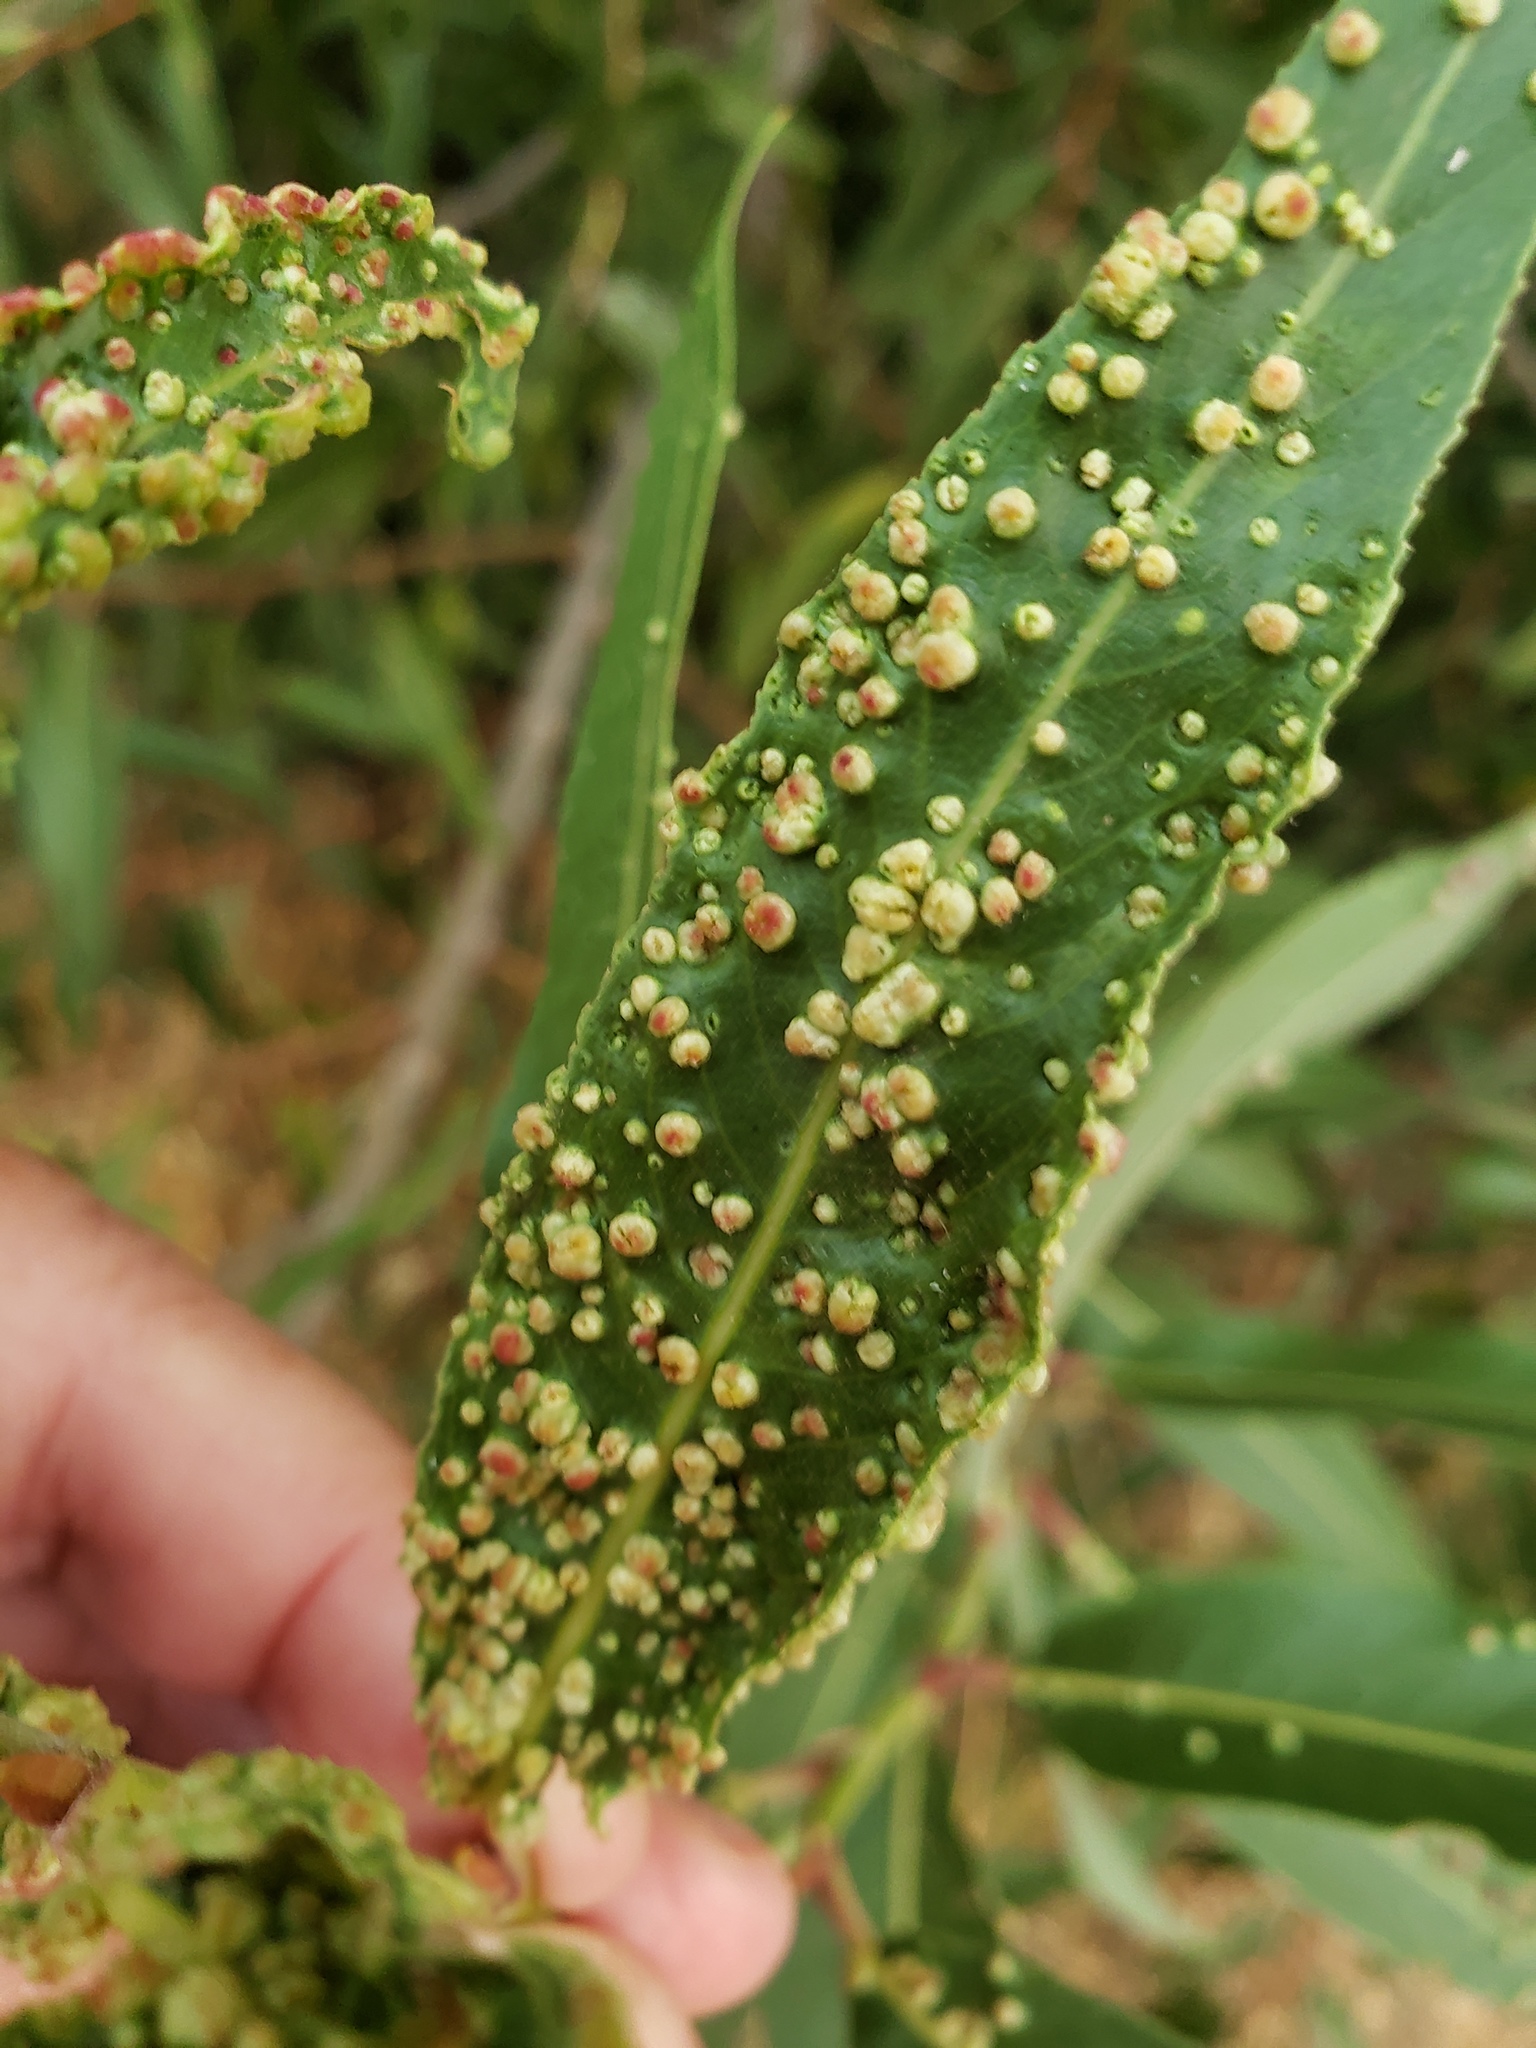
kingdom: Animalia
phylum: Arthropoda
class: Arachnida
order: Trombidiformes
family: Eriophyidae
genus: Aculus
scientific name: Aculus tetanothrix
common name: Willow bead gall mite
